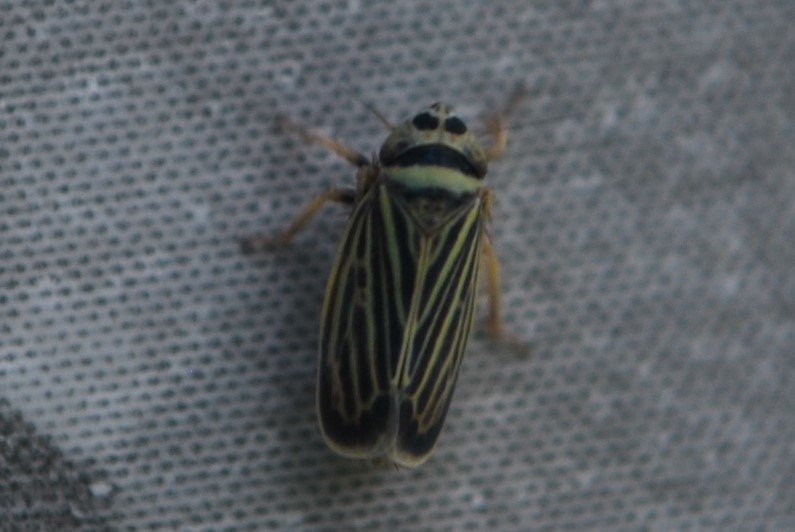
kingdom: Animalia
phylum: Arthropoda
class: Insecta
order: Hemiptera
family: Cicadellidae
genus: Amblysellus
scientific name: Amblysellus curtisii
